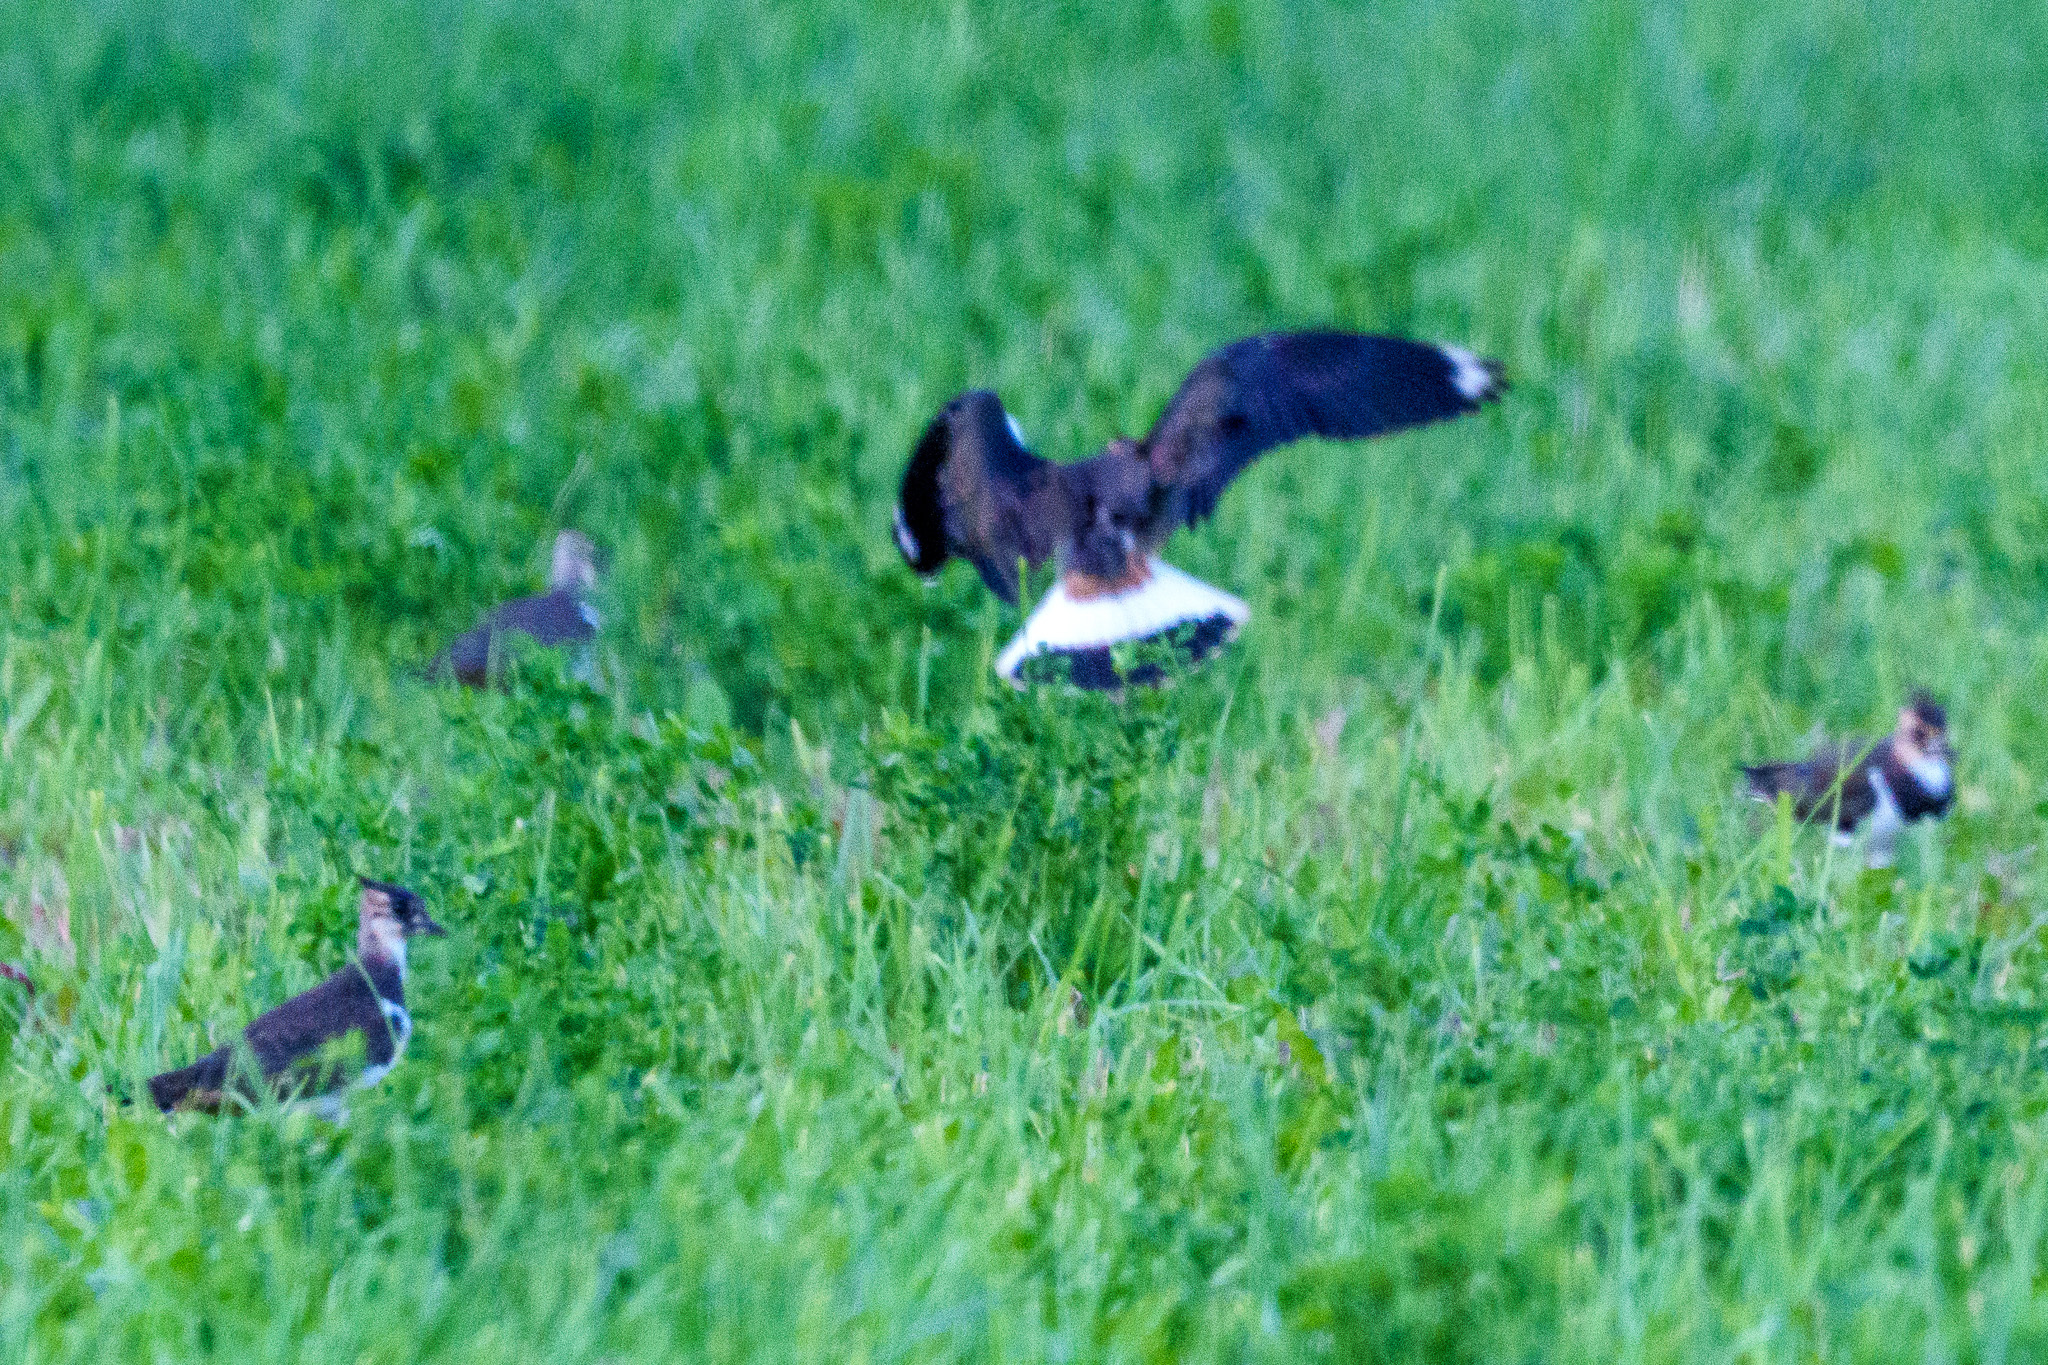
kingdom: Animalia
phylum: Chordata
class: Aves
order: Charadriiformes
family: Charadriidae
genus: Vanellus
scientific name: Vanellus vanellus
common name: Northern lapwing
